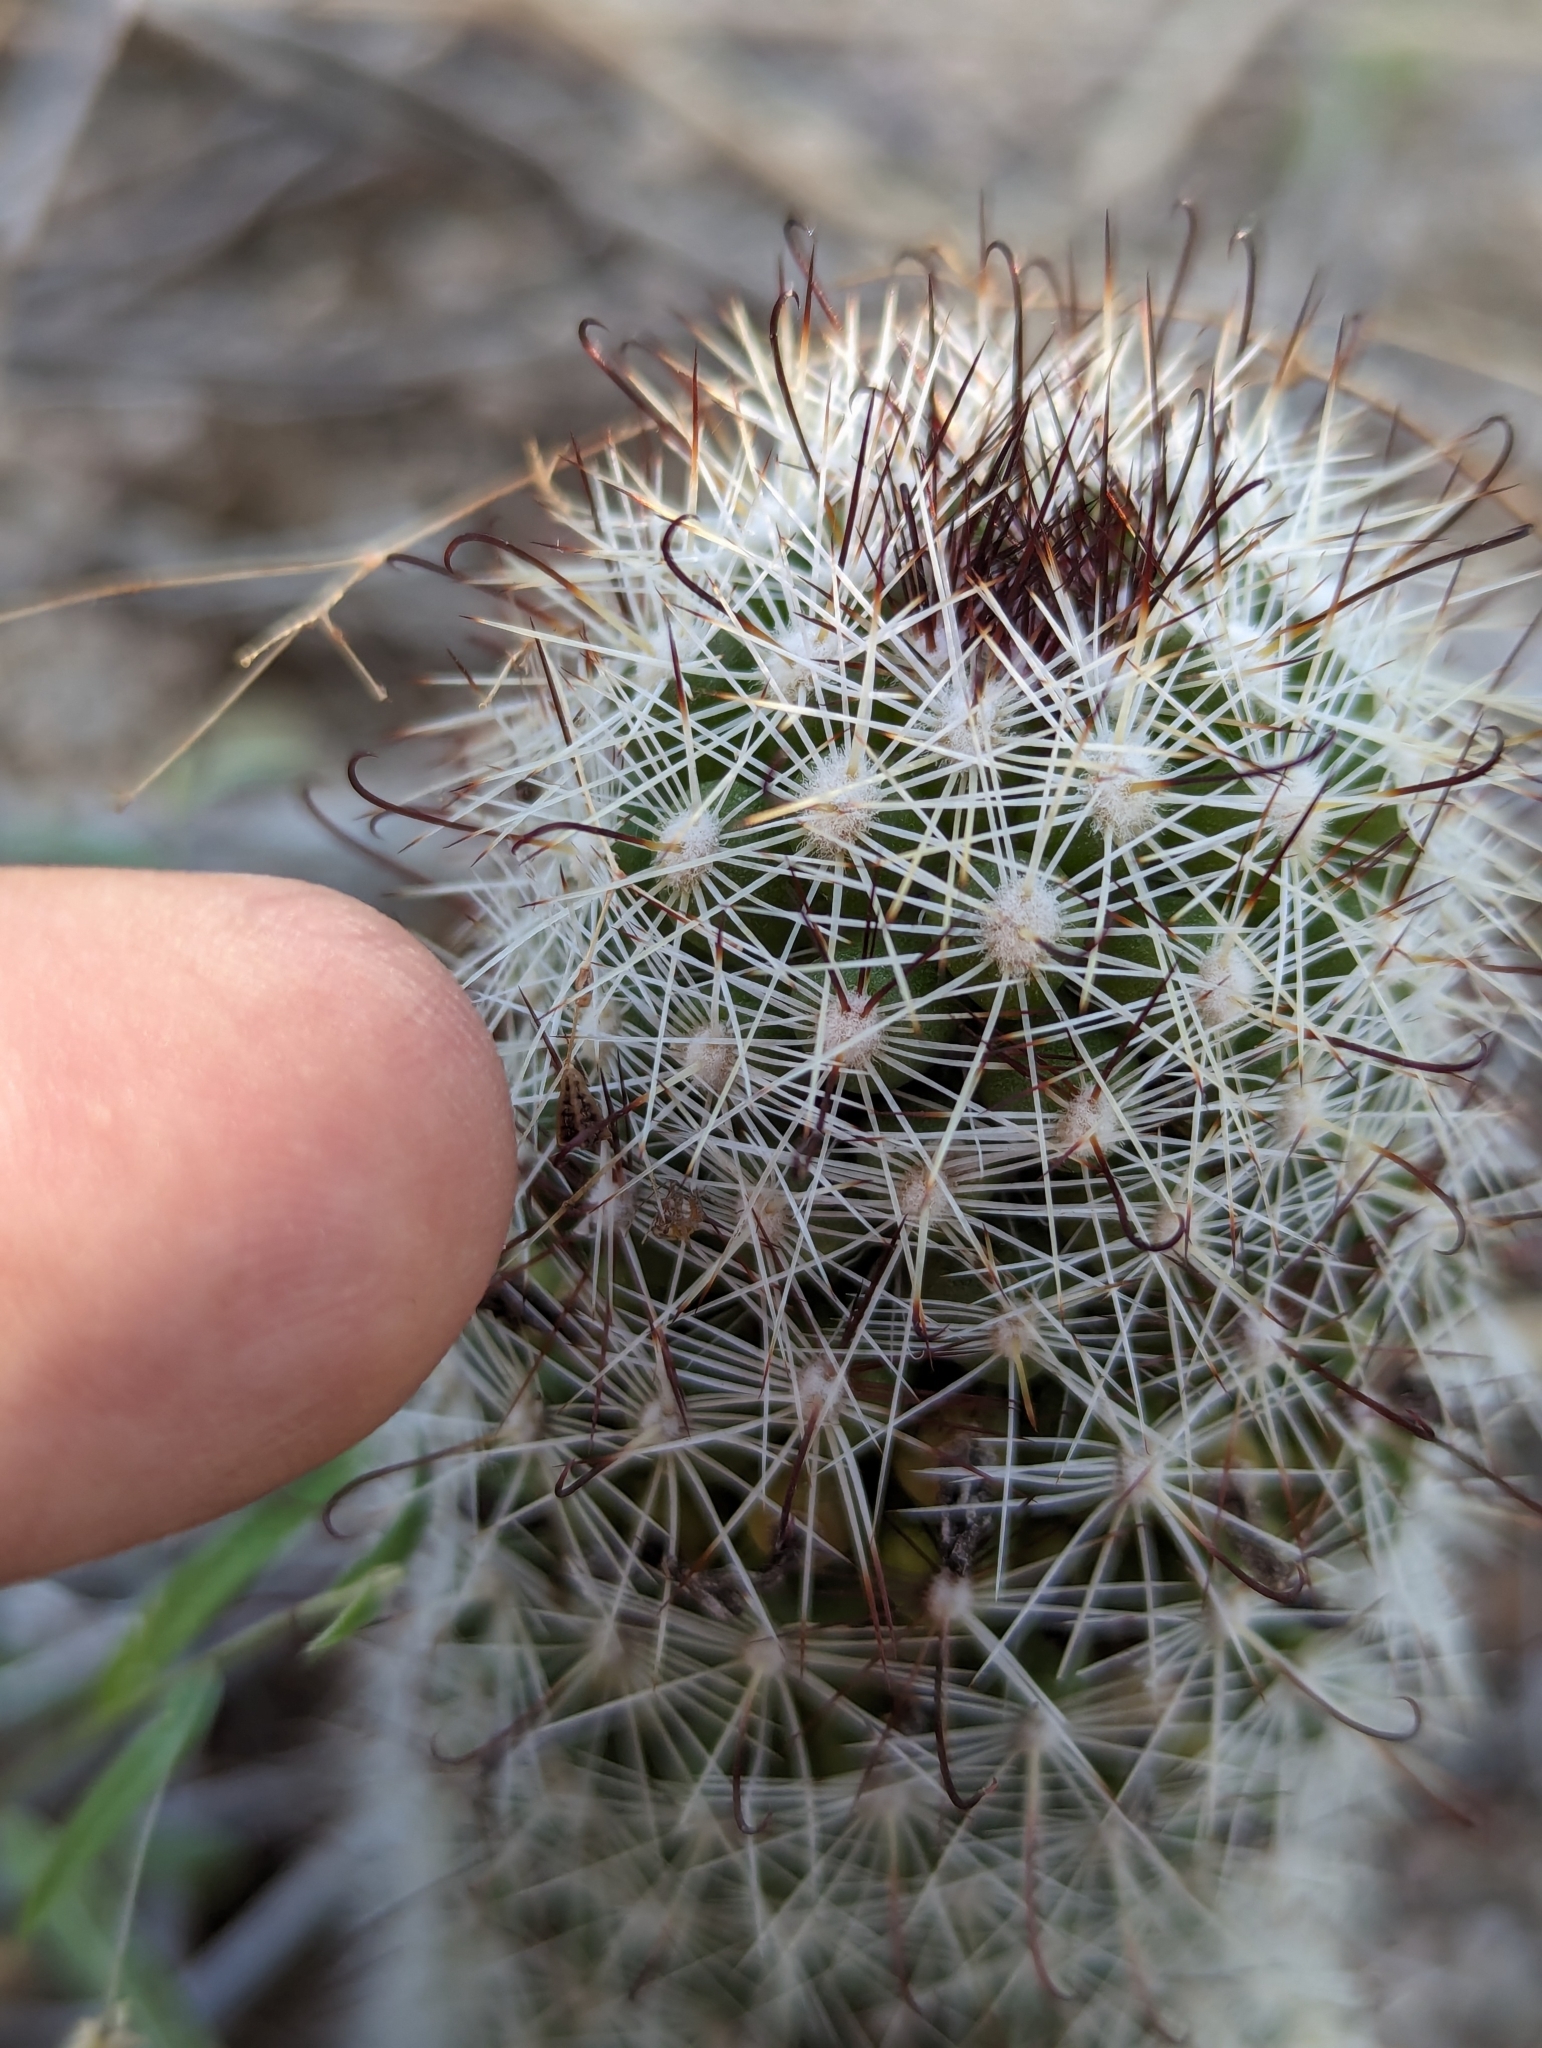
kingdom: Plantae
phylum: Tracheophyta
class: Magnoliopsida
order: Caryophyllales
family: Cactaceae
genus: Cochemiea
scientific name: Cochemiea phitauiana
